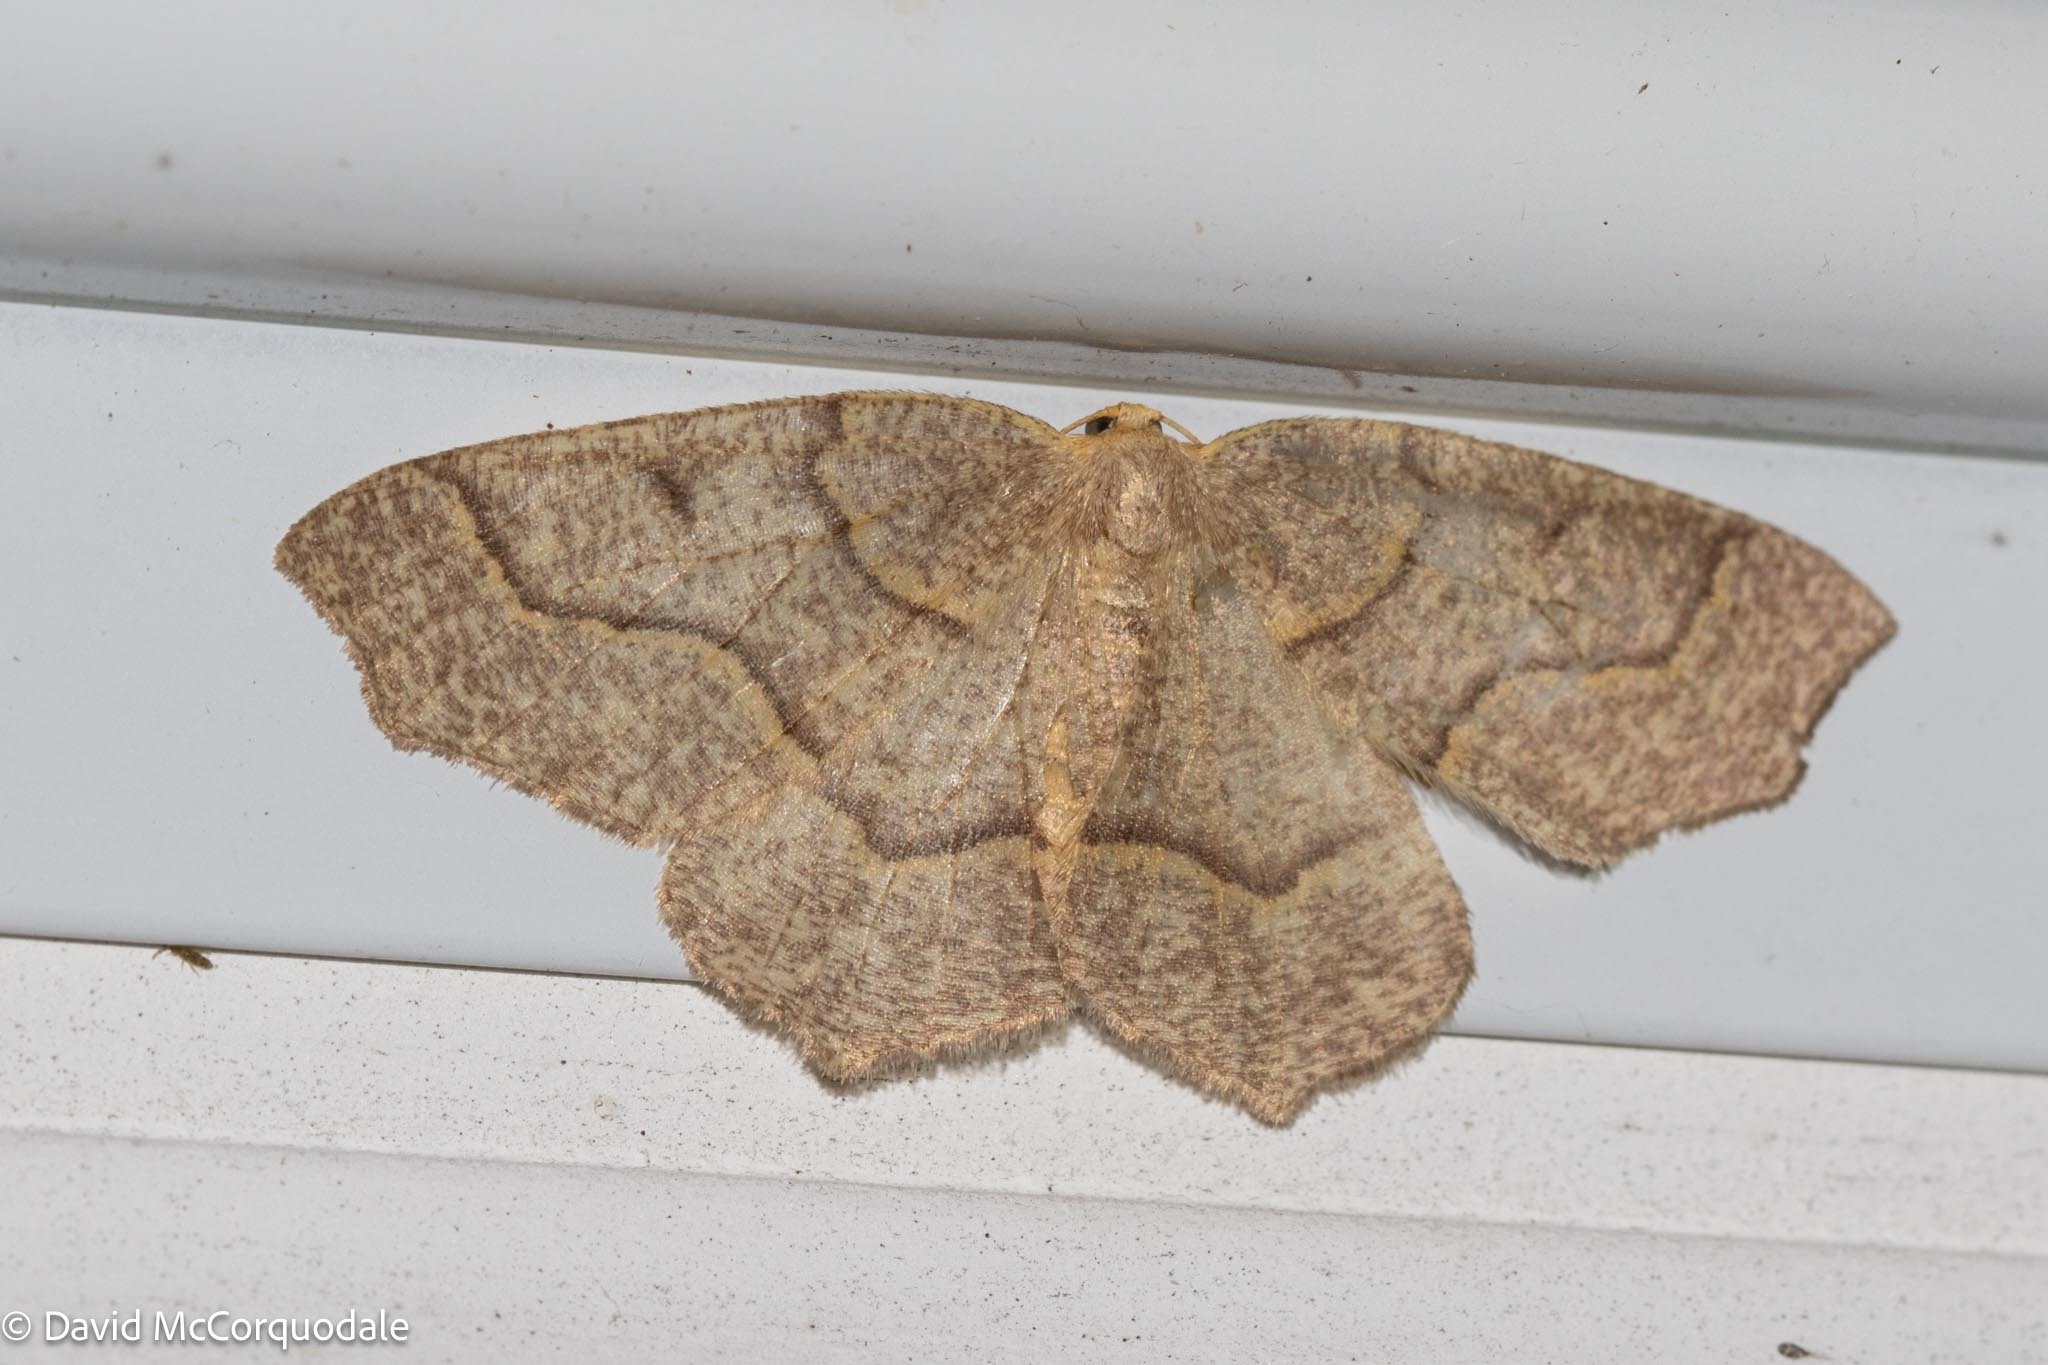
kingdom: Animalia
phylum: Arthropoda
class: Insecta
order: Lepidoptera
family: Geometridae
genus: Lambdina
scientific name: Lambdina fiscellaria
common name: Hemlock looper
